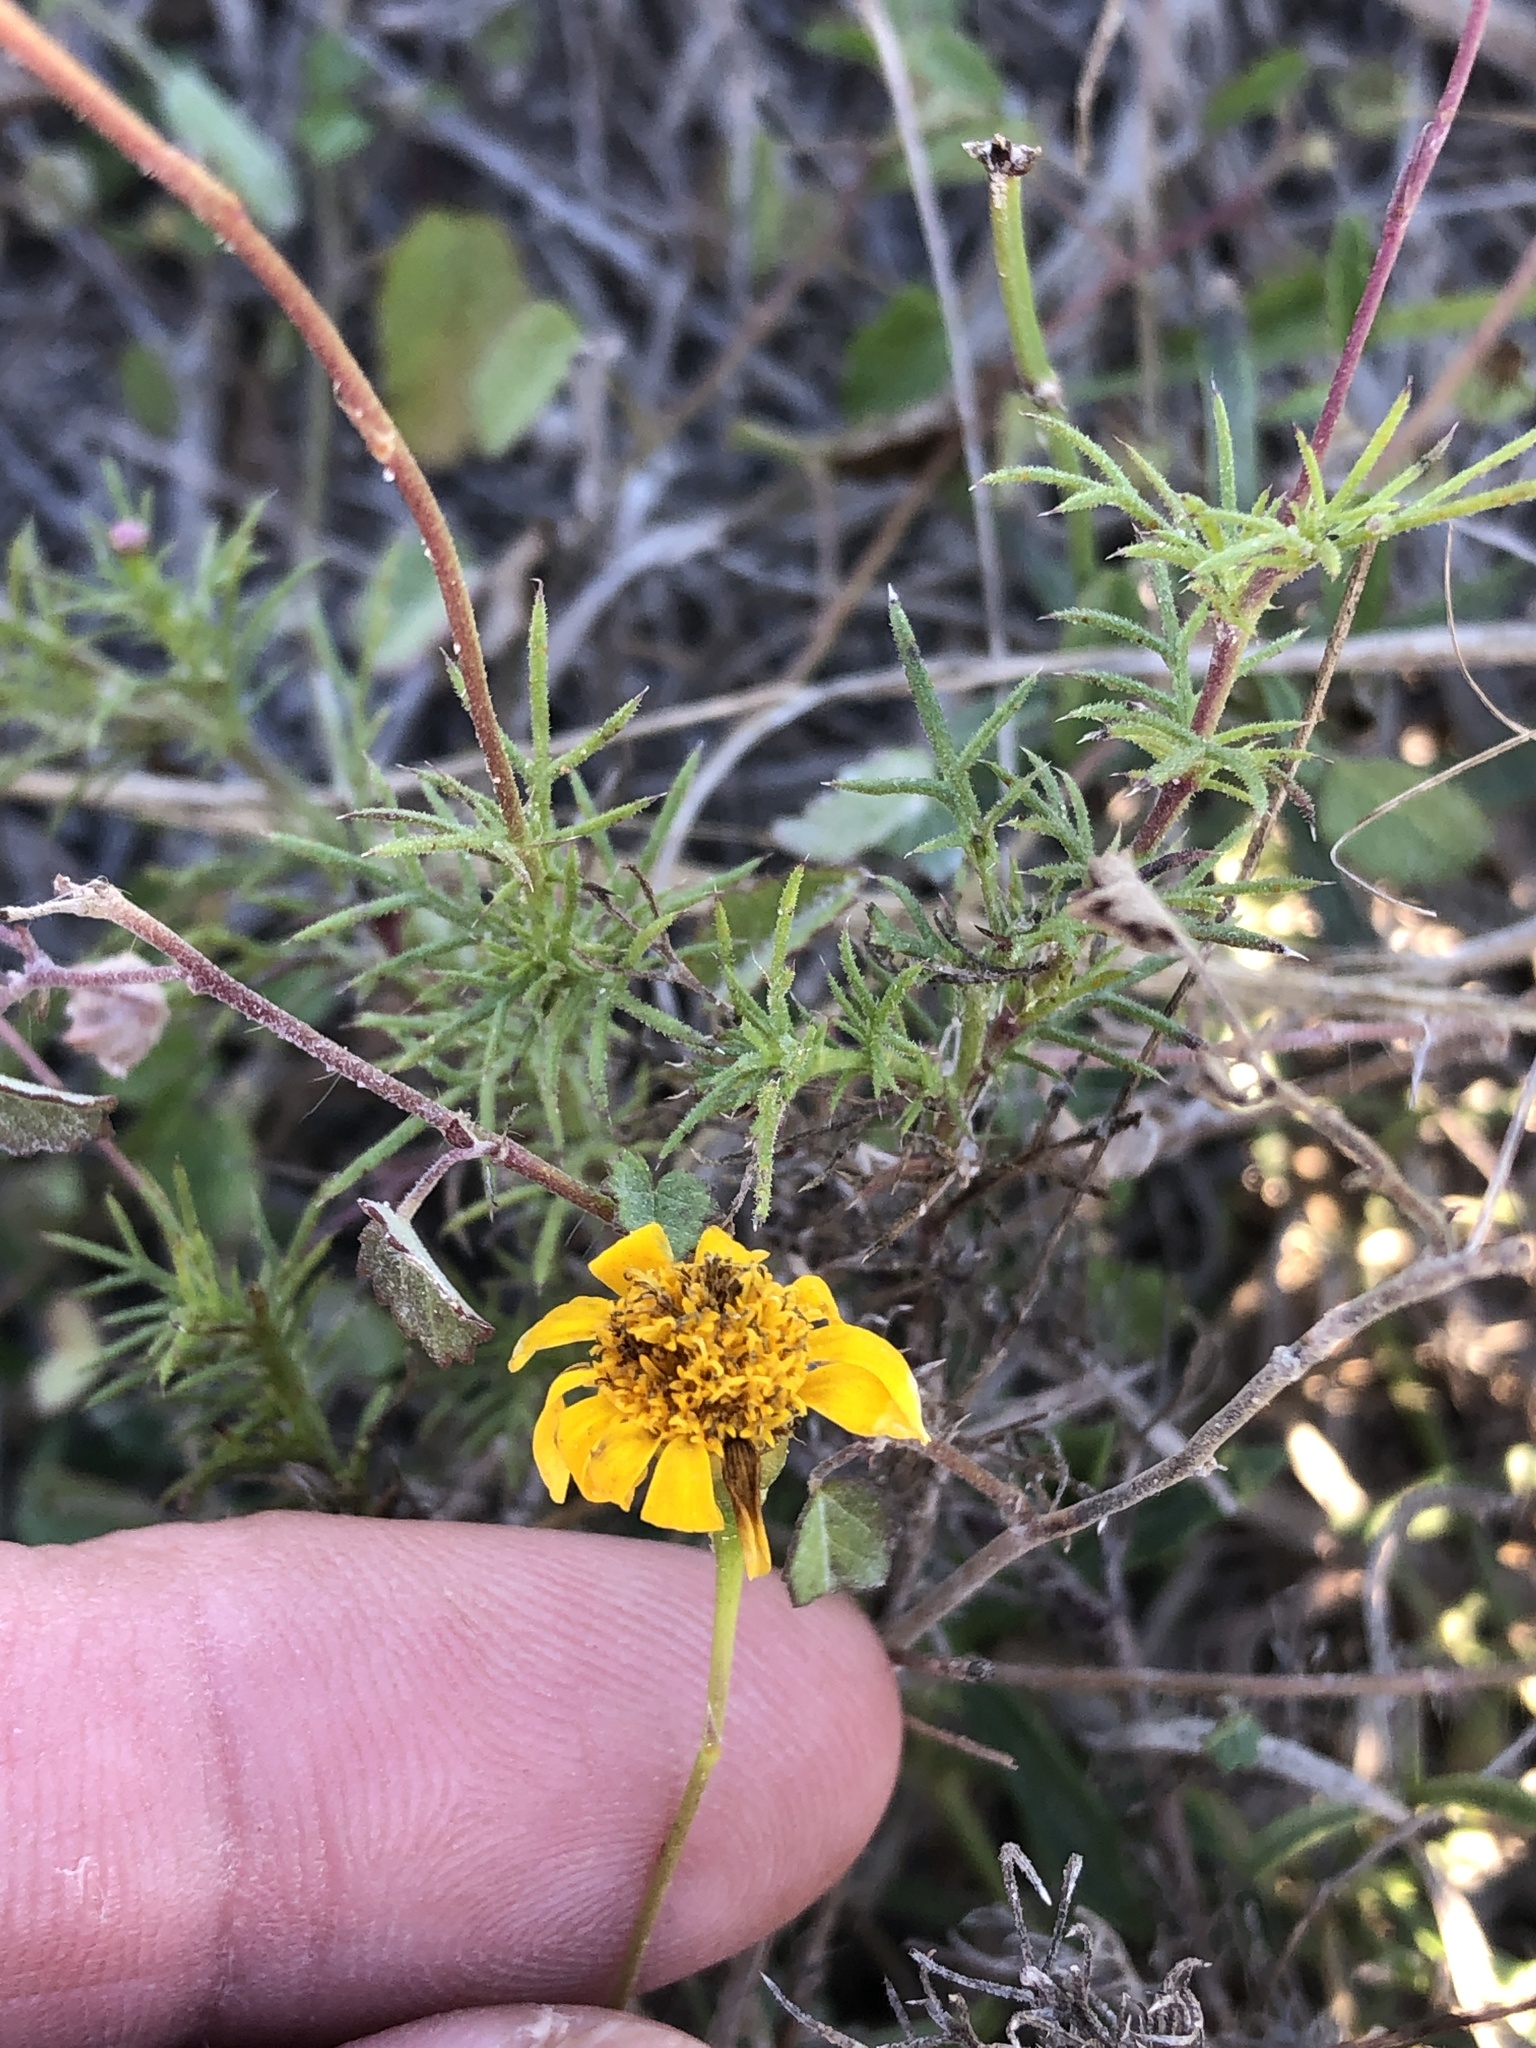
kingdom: Plantae
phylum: Tracheophyta
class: Magnoliopsida
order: Asterales
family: Asteraceae
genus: Thymophylla
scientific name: Thymophylla tenuiloba
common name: Dahlberg's daisy
